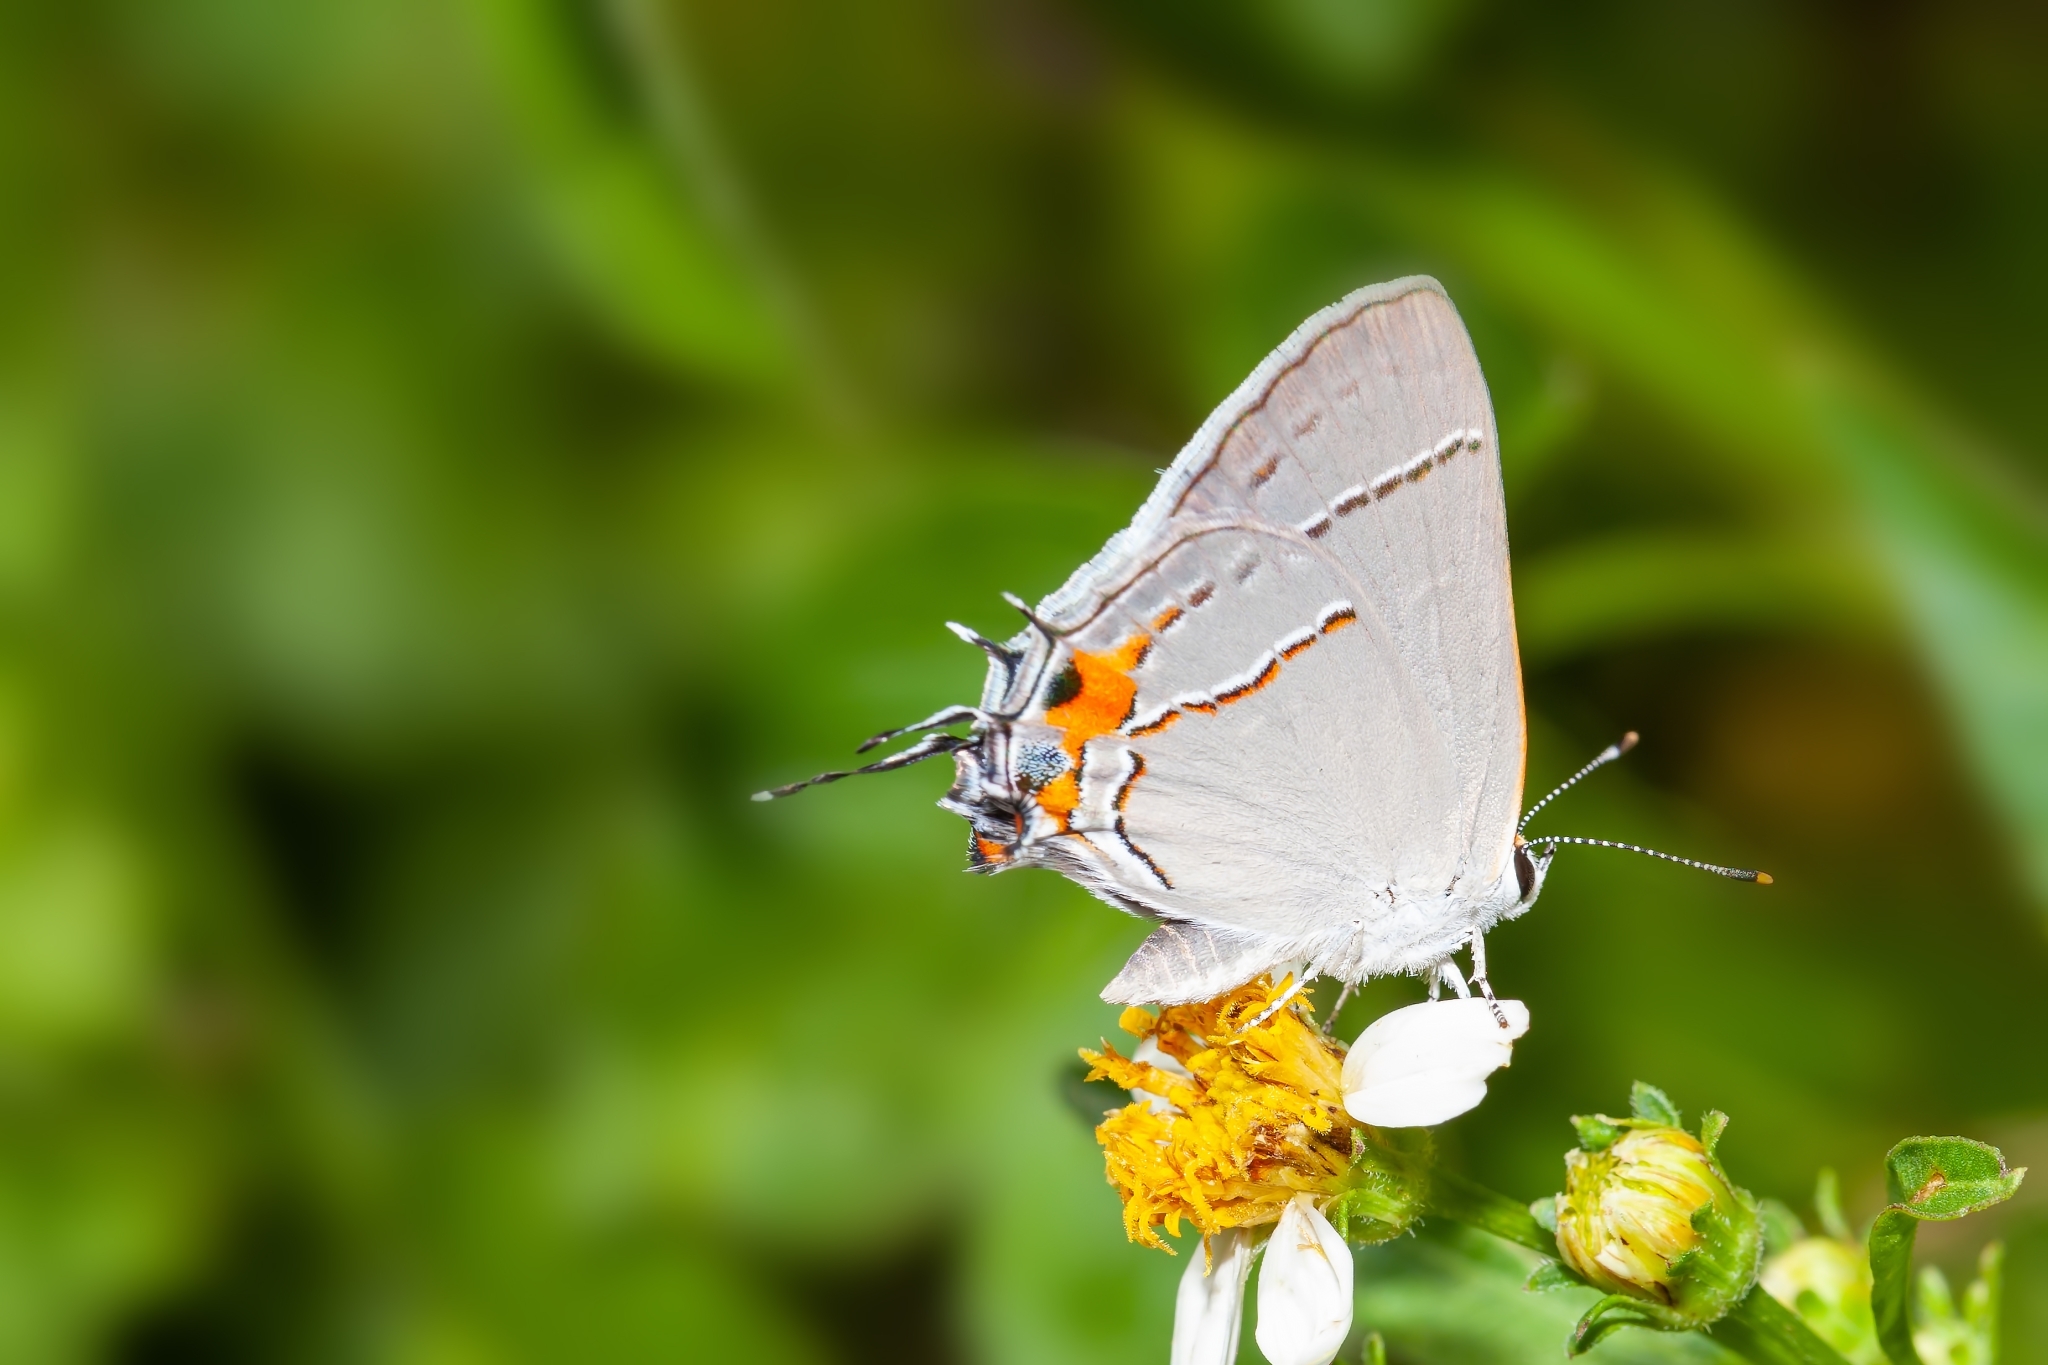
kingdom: Animalia
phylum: Arthropoda
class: Insecta
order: Lepidoptera
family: Lycaenidae
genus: Strymon
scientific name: Strymon melinus
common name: Gray hairstreak
